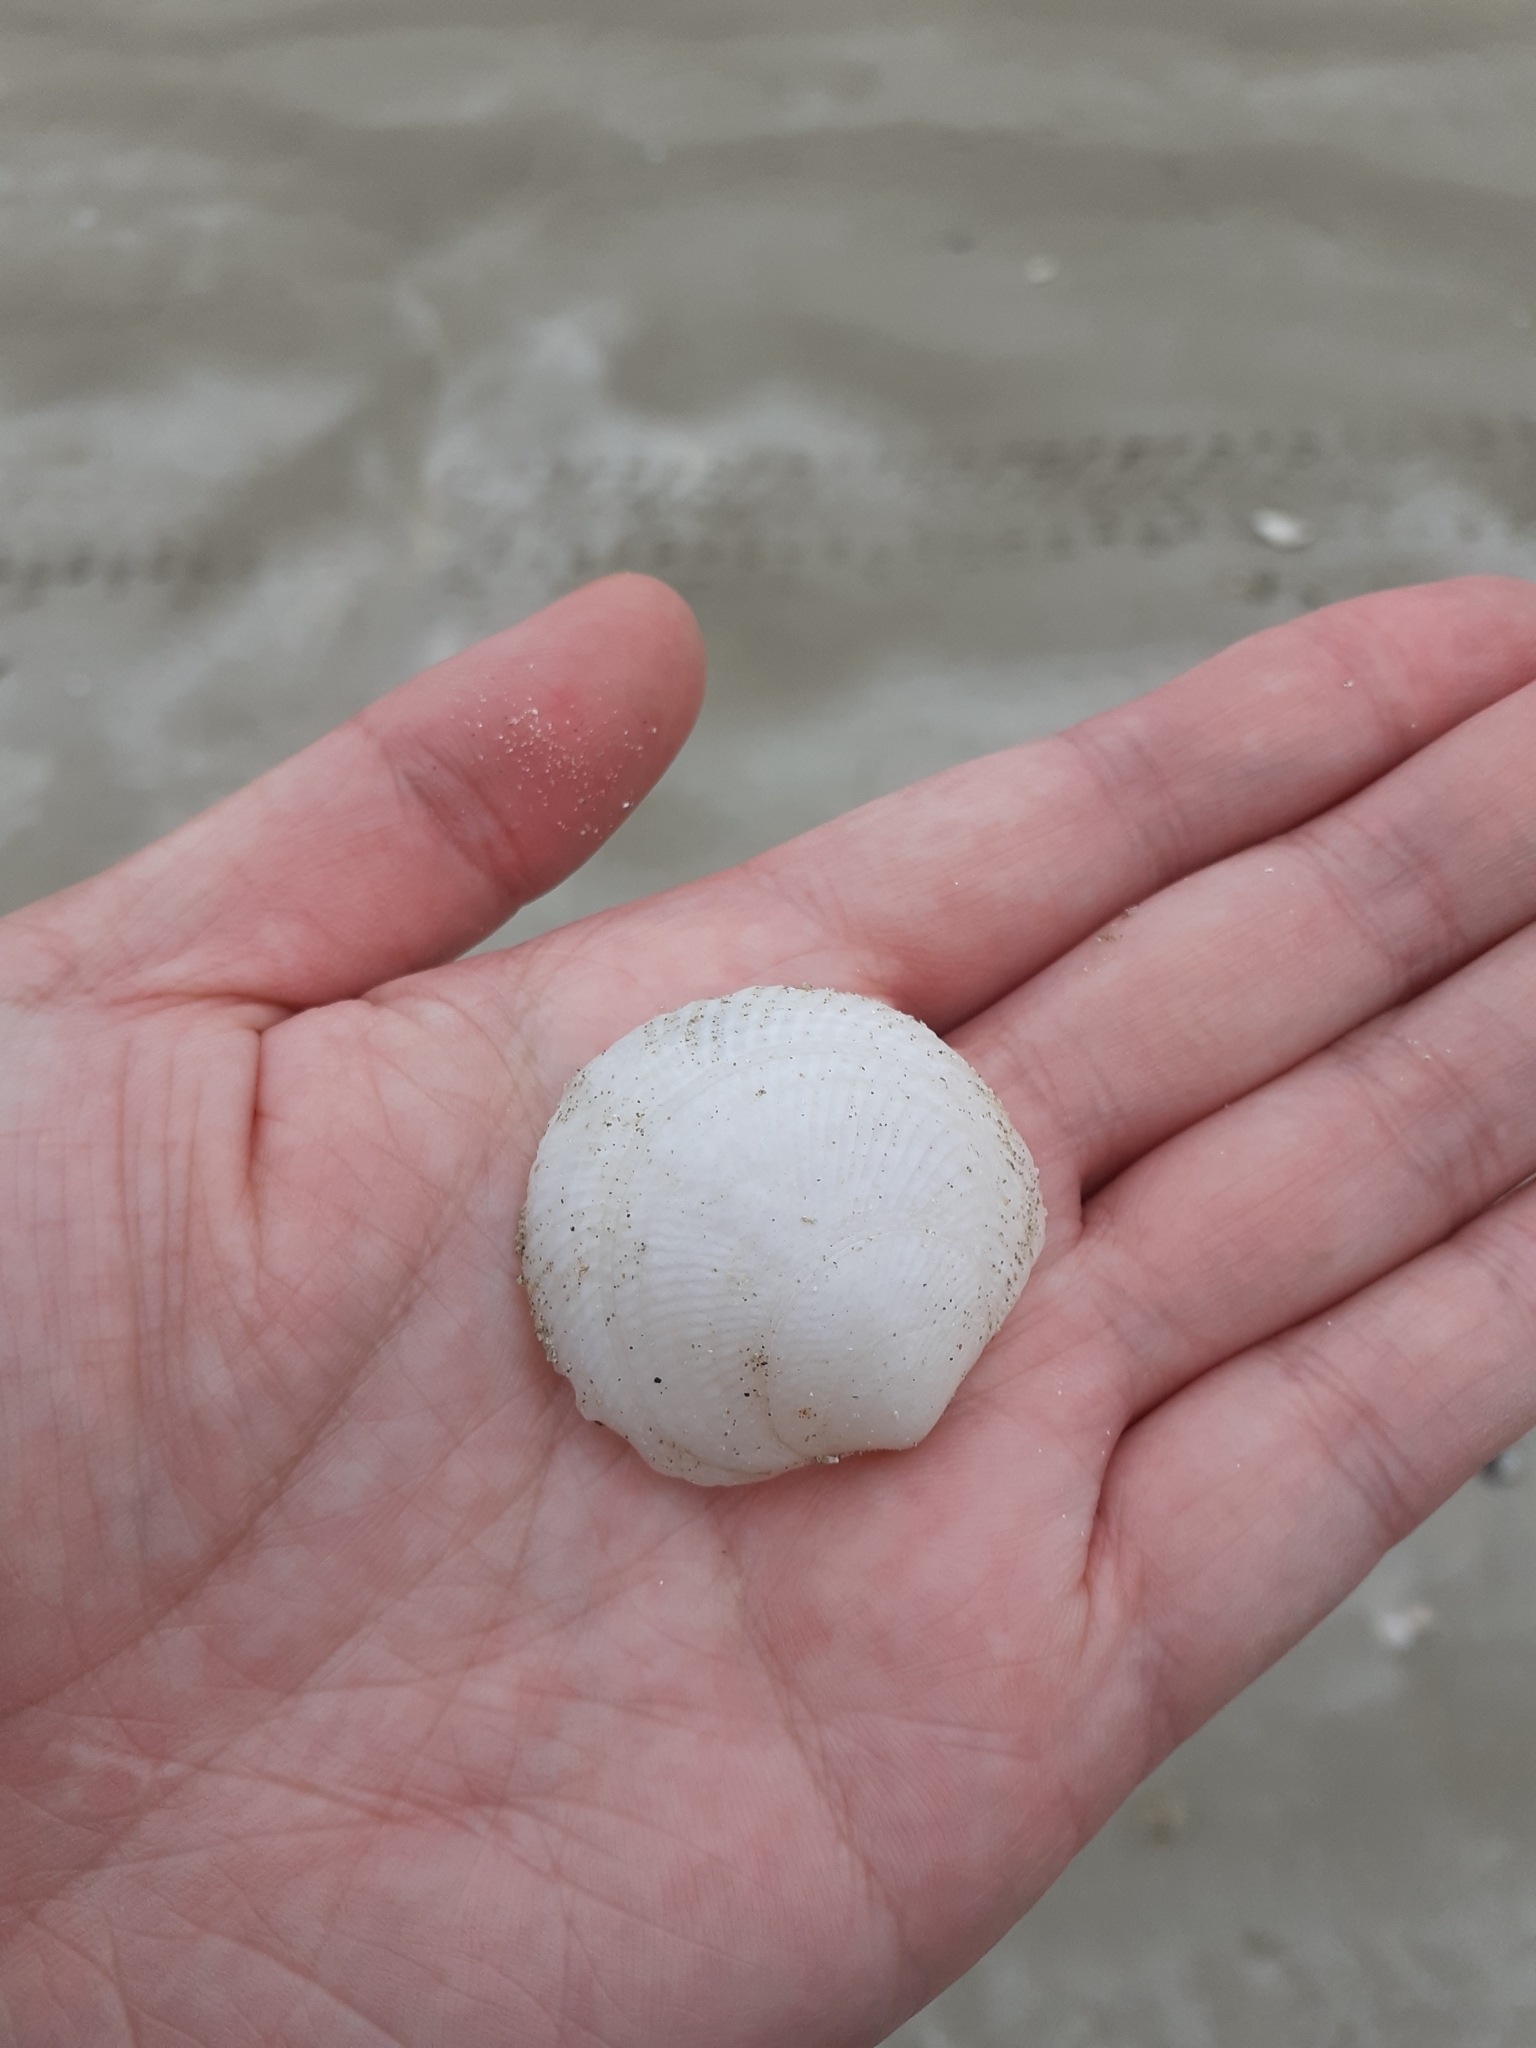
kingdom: Animalia
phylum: Mollusca
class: Bivalvia
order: Lucinida
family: Lucinidae
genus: Divalucina
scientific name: Divalucina cumingi
